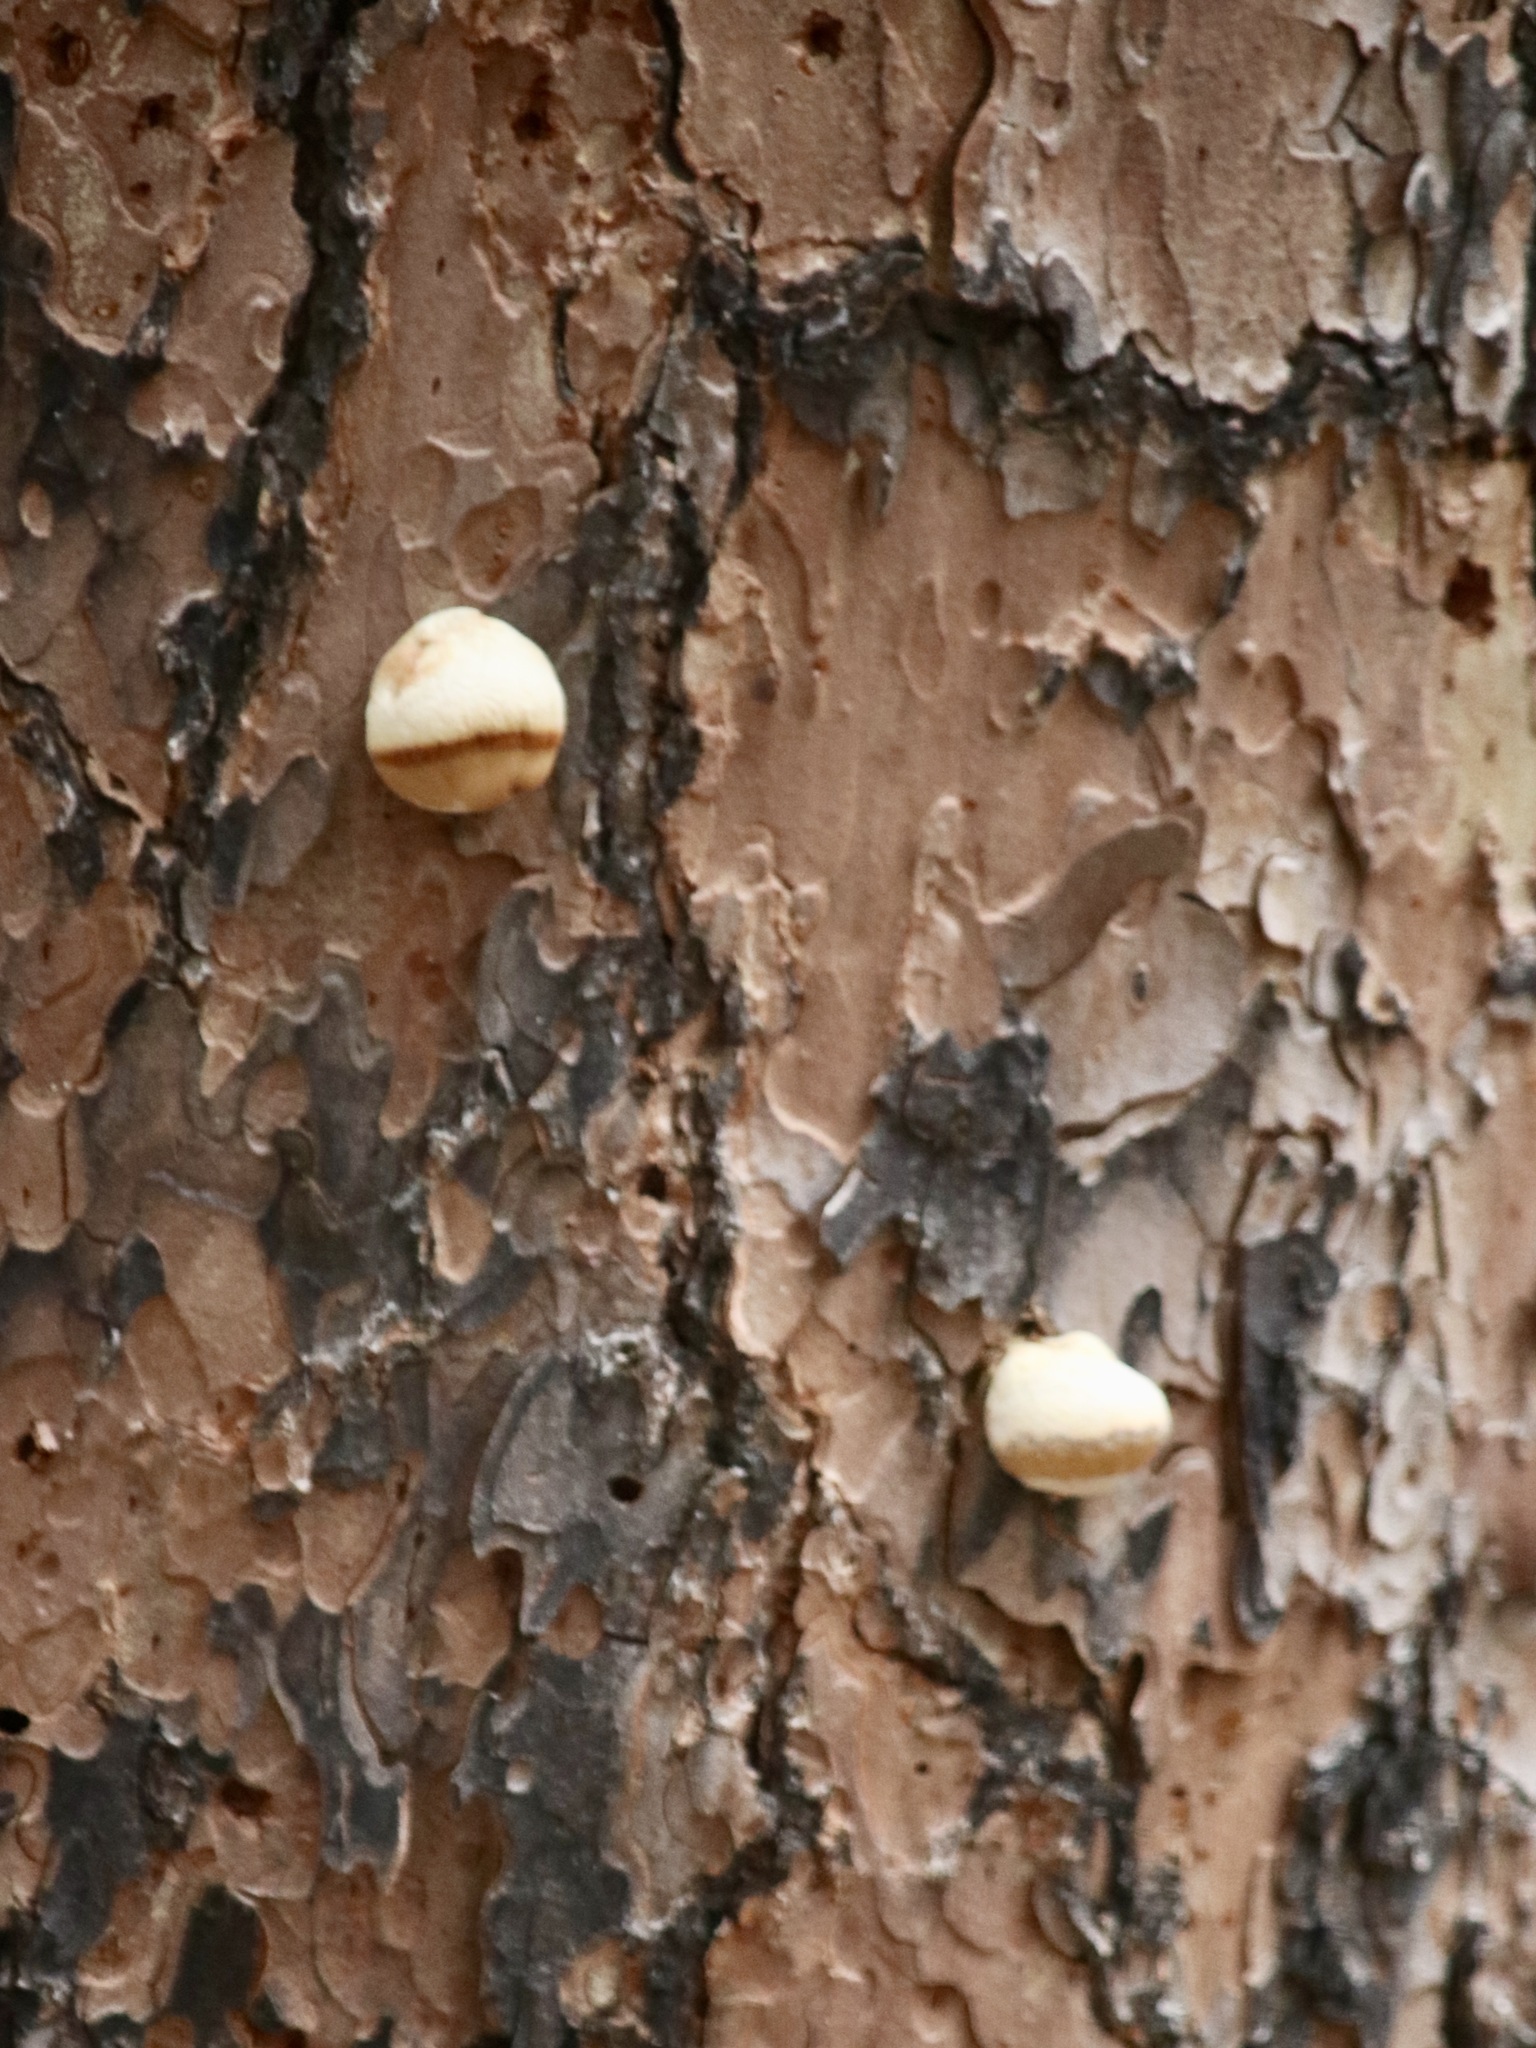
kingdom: Fungi
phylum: Basidiomycota
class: Agaricomycetes
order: Polyporales
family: Polyporaceae
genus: Cryptoporus
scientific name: Cryptoporus volvatus
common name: Veiled polypore
